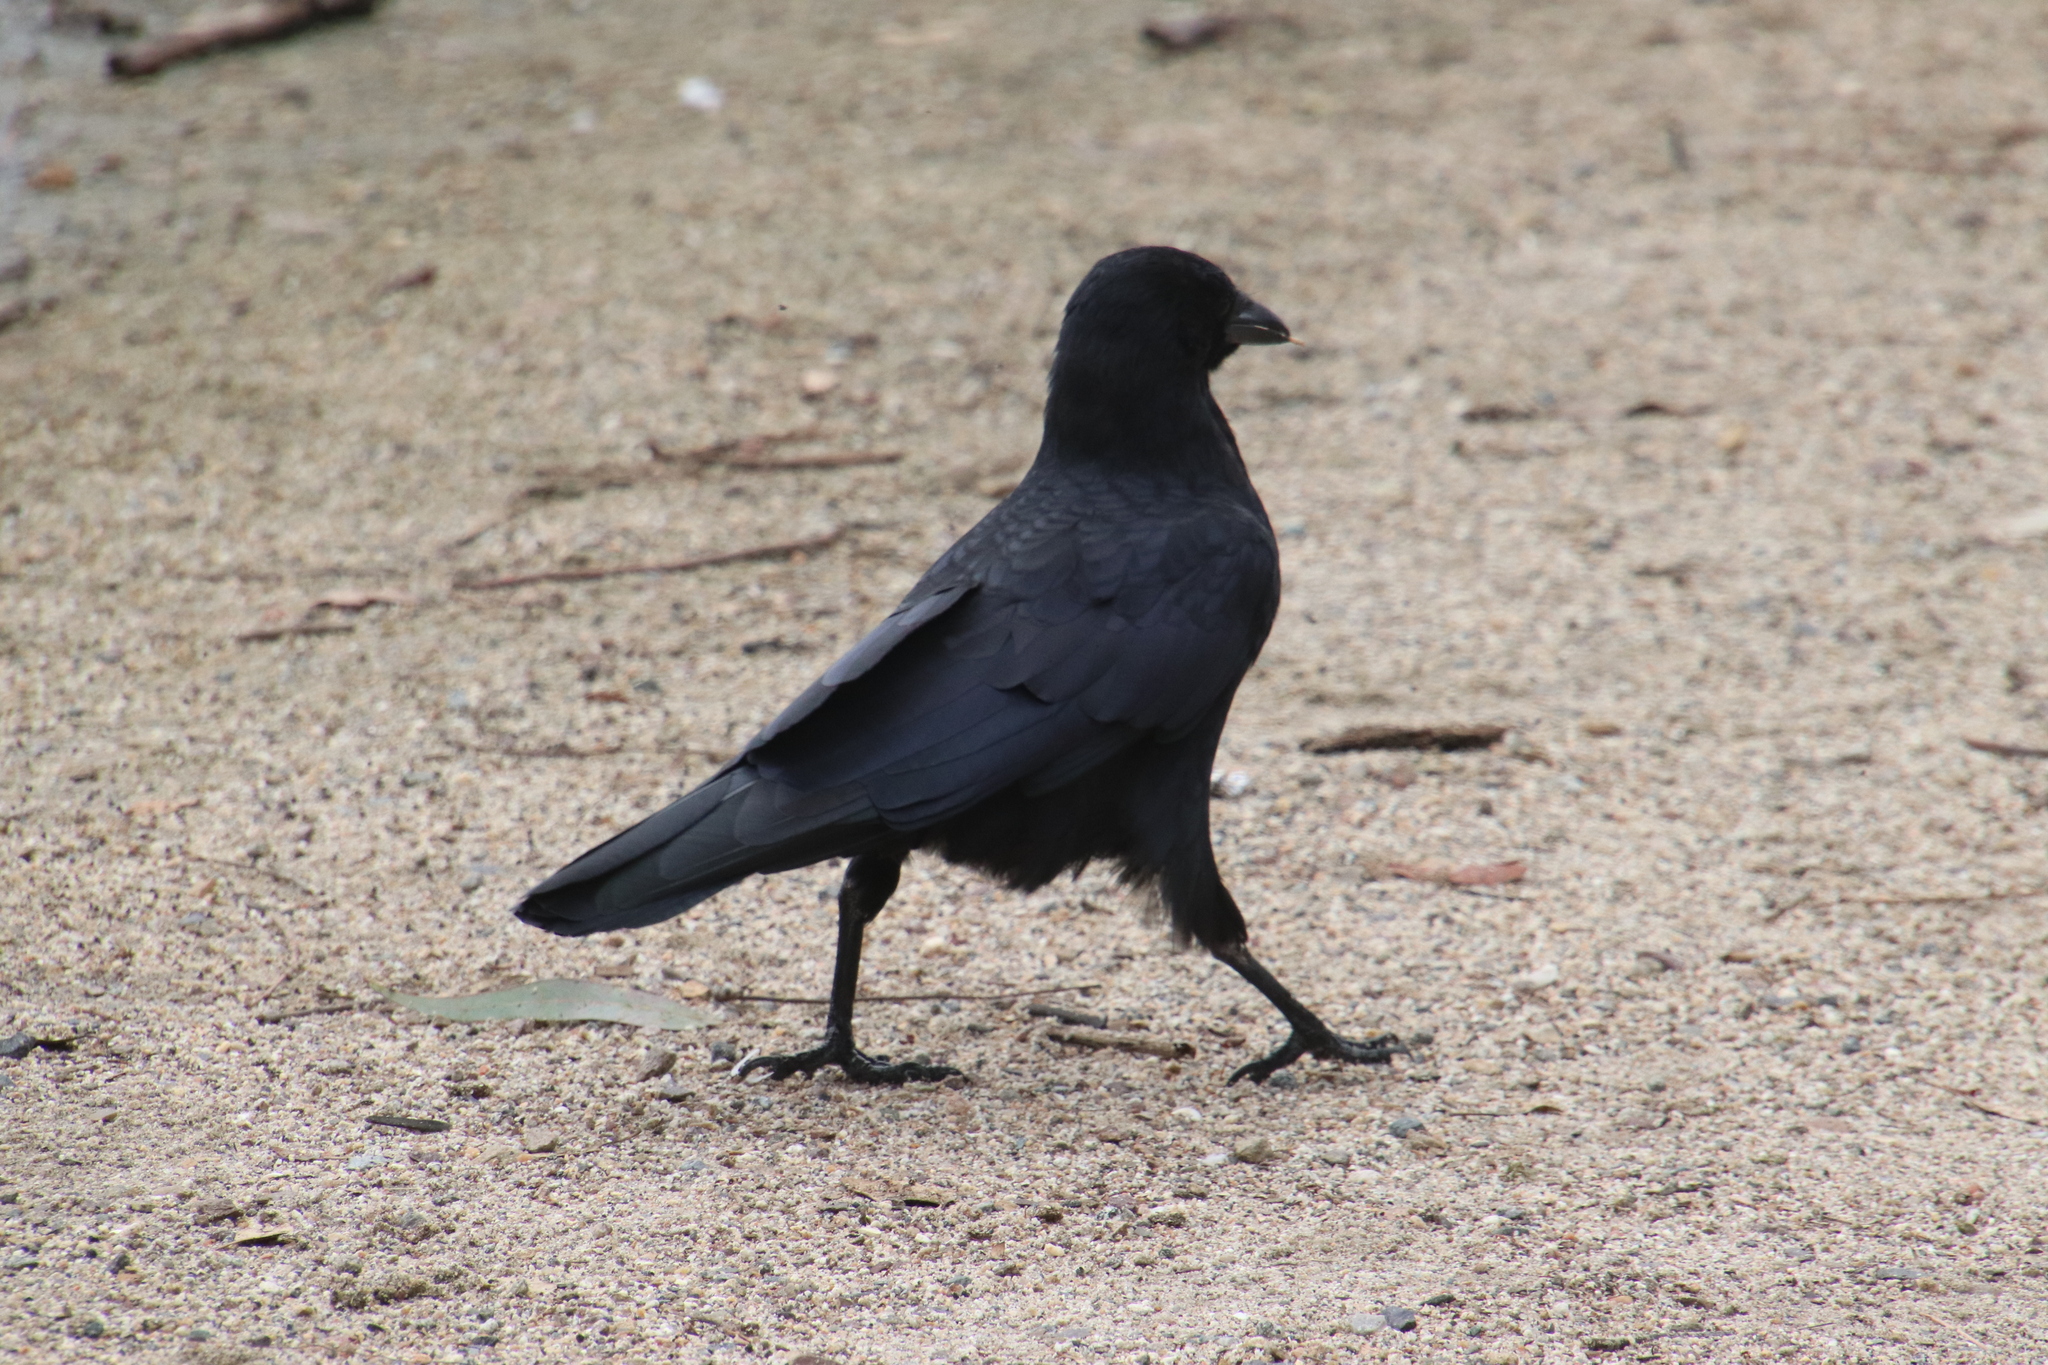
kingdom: Animalia
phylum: Chordata
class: Aves
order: Passeriformes
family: Corvidae
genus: Corvus
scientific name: Corvus brachyrhynchos
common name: American crow
